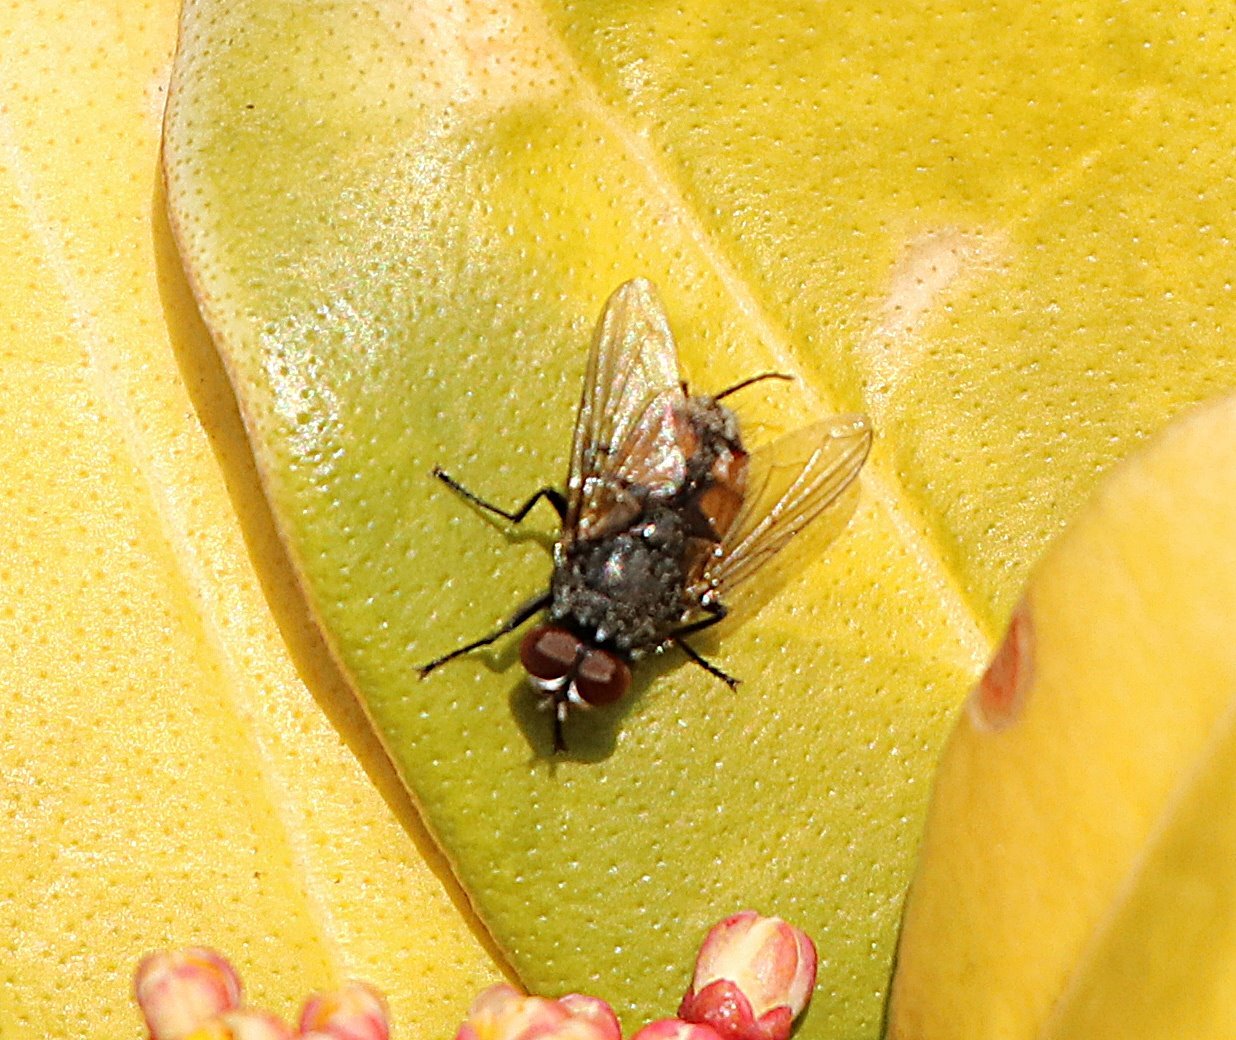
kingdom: Animalia
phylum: Arthropoda
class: Insecta
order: Diptera
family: Muscidae
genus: Musca
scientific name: Musca autumnalis
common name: Face fly
